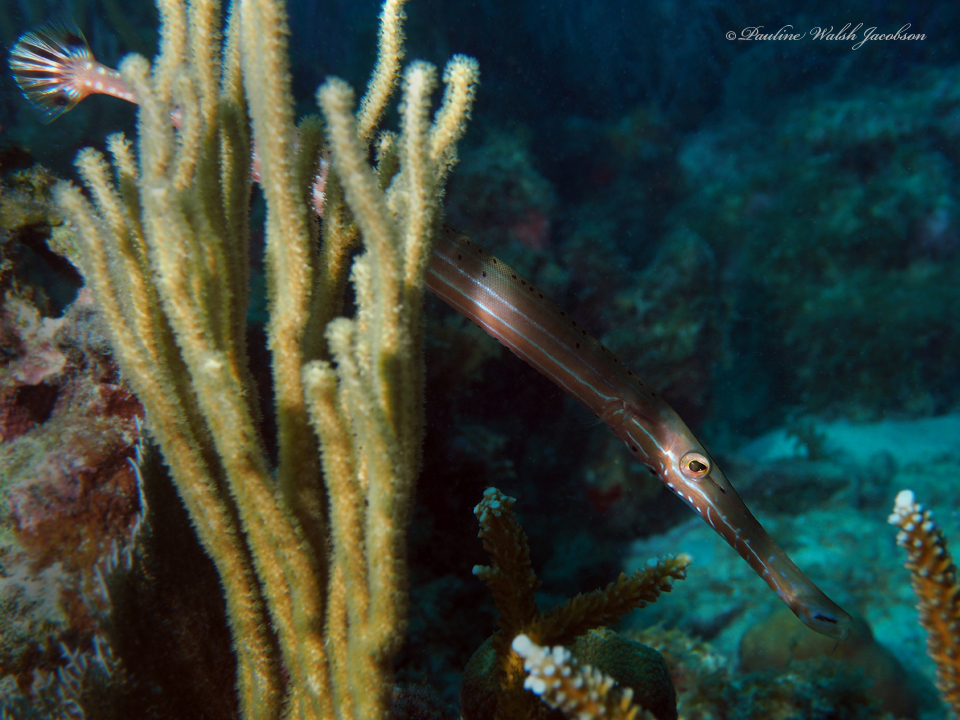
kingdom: Animalia
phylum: Chordata
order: Syngnathiformes
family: Aulostomidae
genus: Aulostomus
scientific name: Aulostomus maculatus
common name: West atlantic trumpetfish
